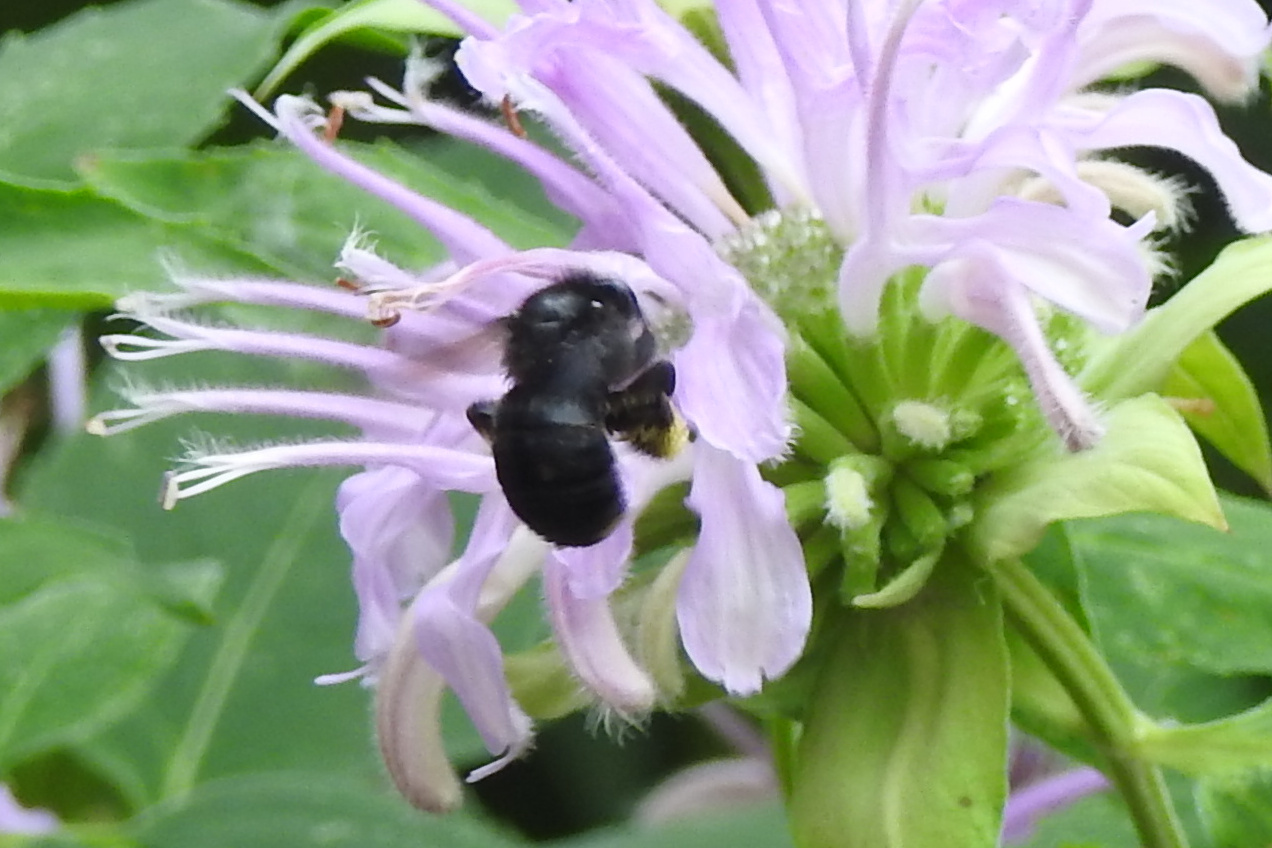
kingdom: Animalia
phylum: Arthropoda
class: Insecta
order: Hymenoptera
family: Apidae
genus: Melissodes
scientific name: Melissodes bimaculatus
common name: Two-spotted long-horned bee
